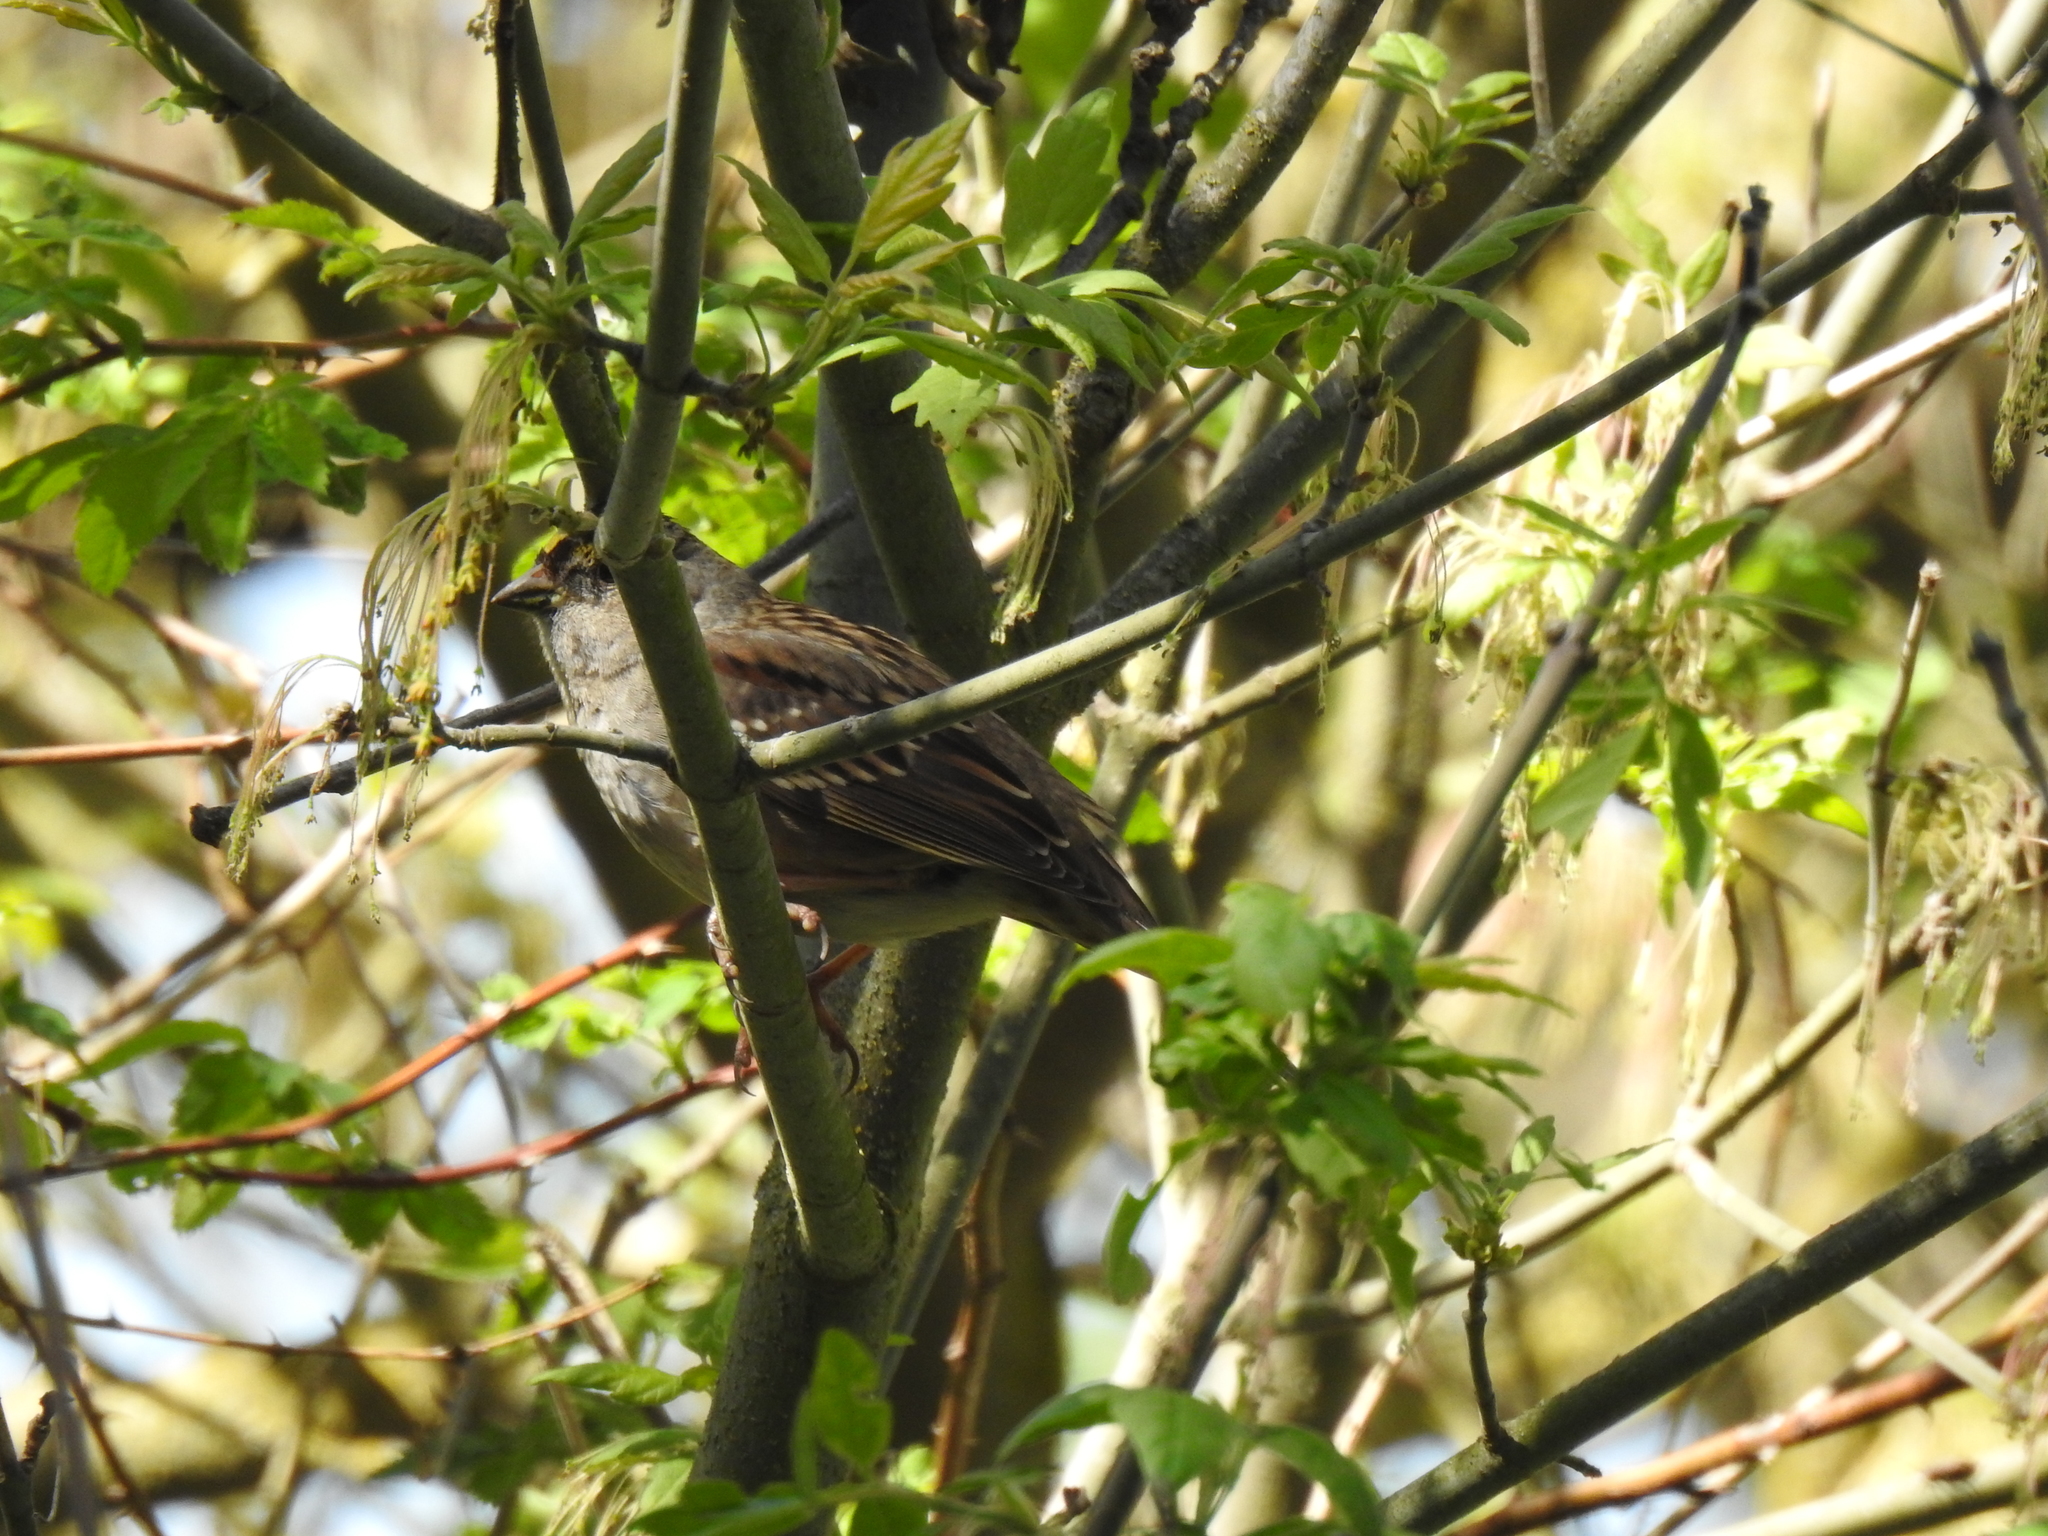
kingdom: Animalia
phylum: Chordata
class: Aves
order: Passeriformes
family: Passerellidae
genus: Zonotrichia
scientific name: Zonotrichia atricapilla
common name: Golden-crowned sparrow
